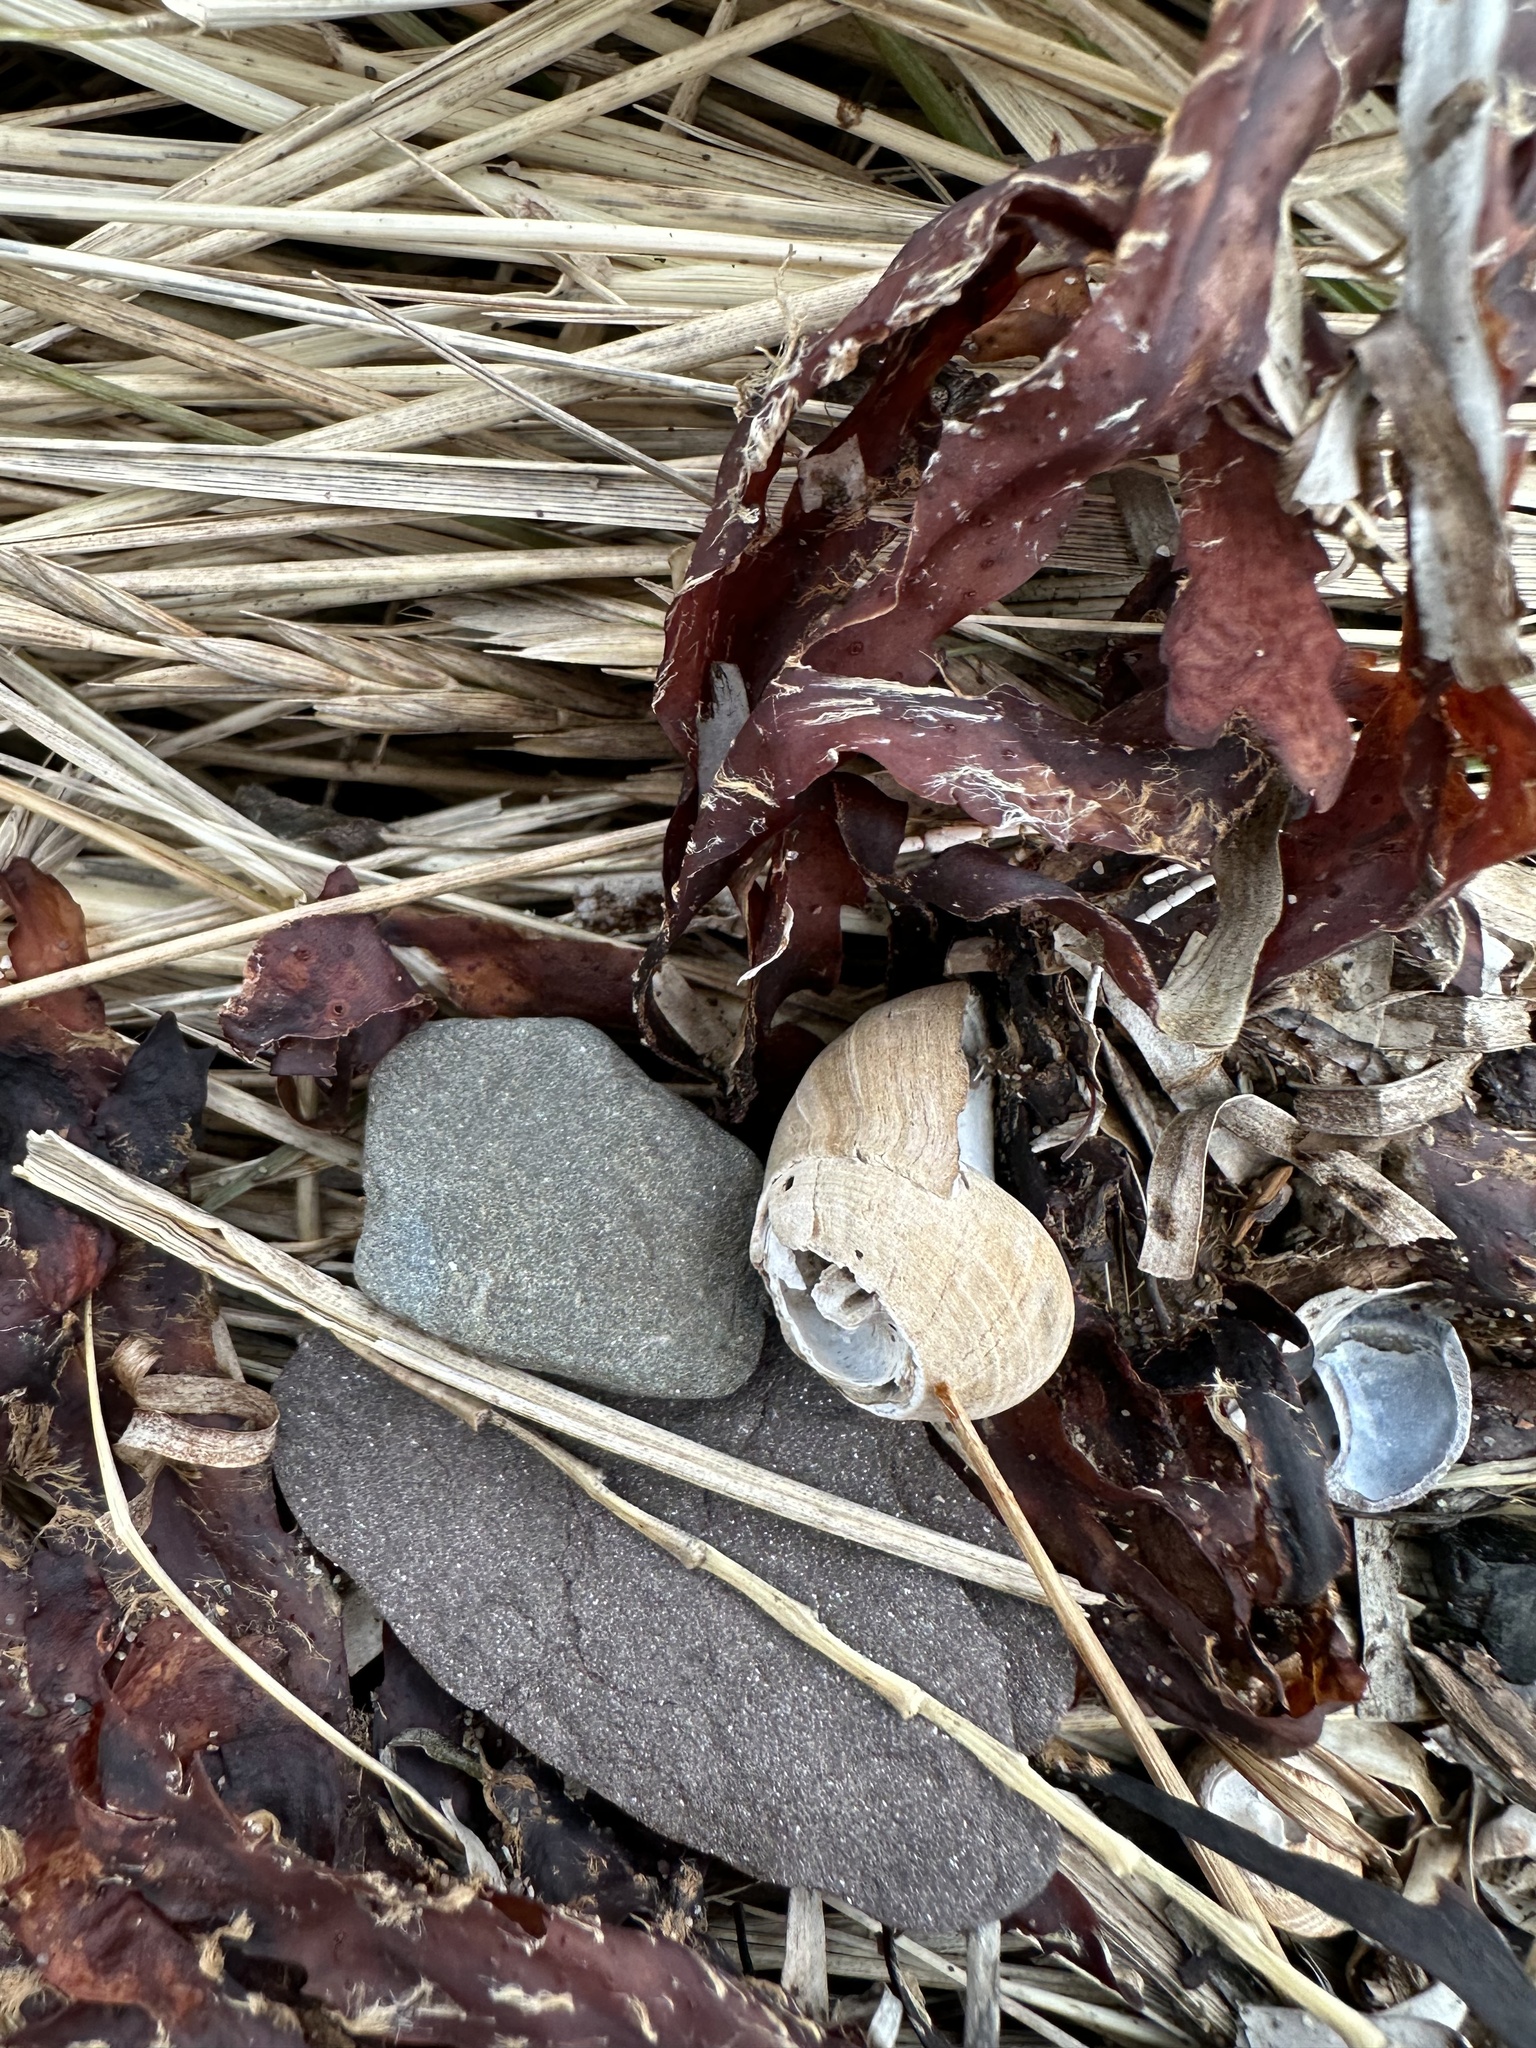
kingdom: Animalia
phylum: Mollusca
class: Gastropoda
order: Littorinimorpha
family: Littorinidae
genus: Littorina
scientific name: Littorina littorea
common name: Common periwinkle
